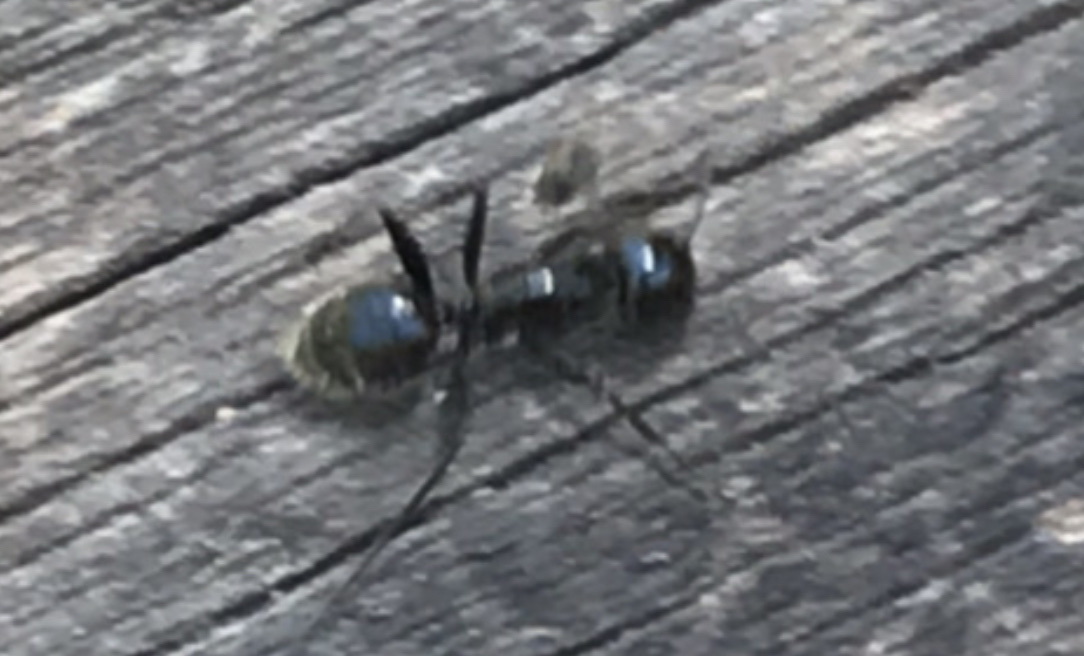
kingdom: Animalia
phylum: Arthropoda
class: Insecta
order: Hymenoptera
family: Formicidae
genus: Camponotus
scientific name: Camponotus
